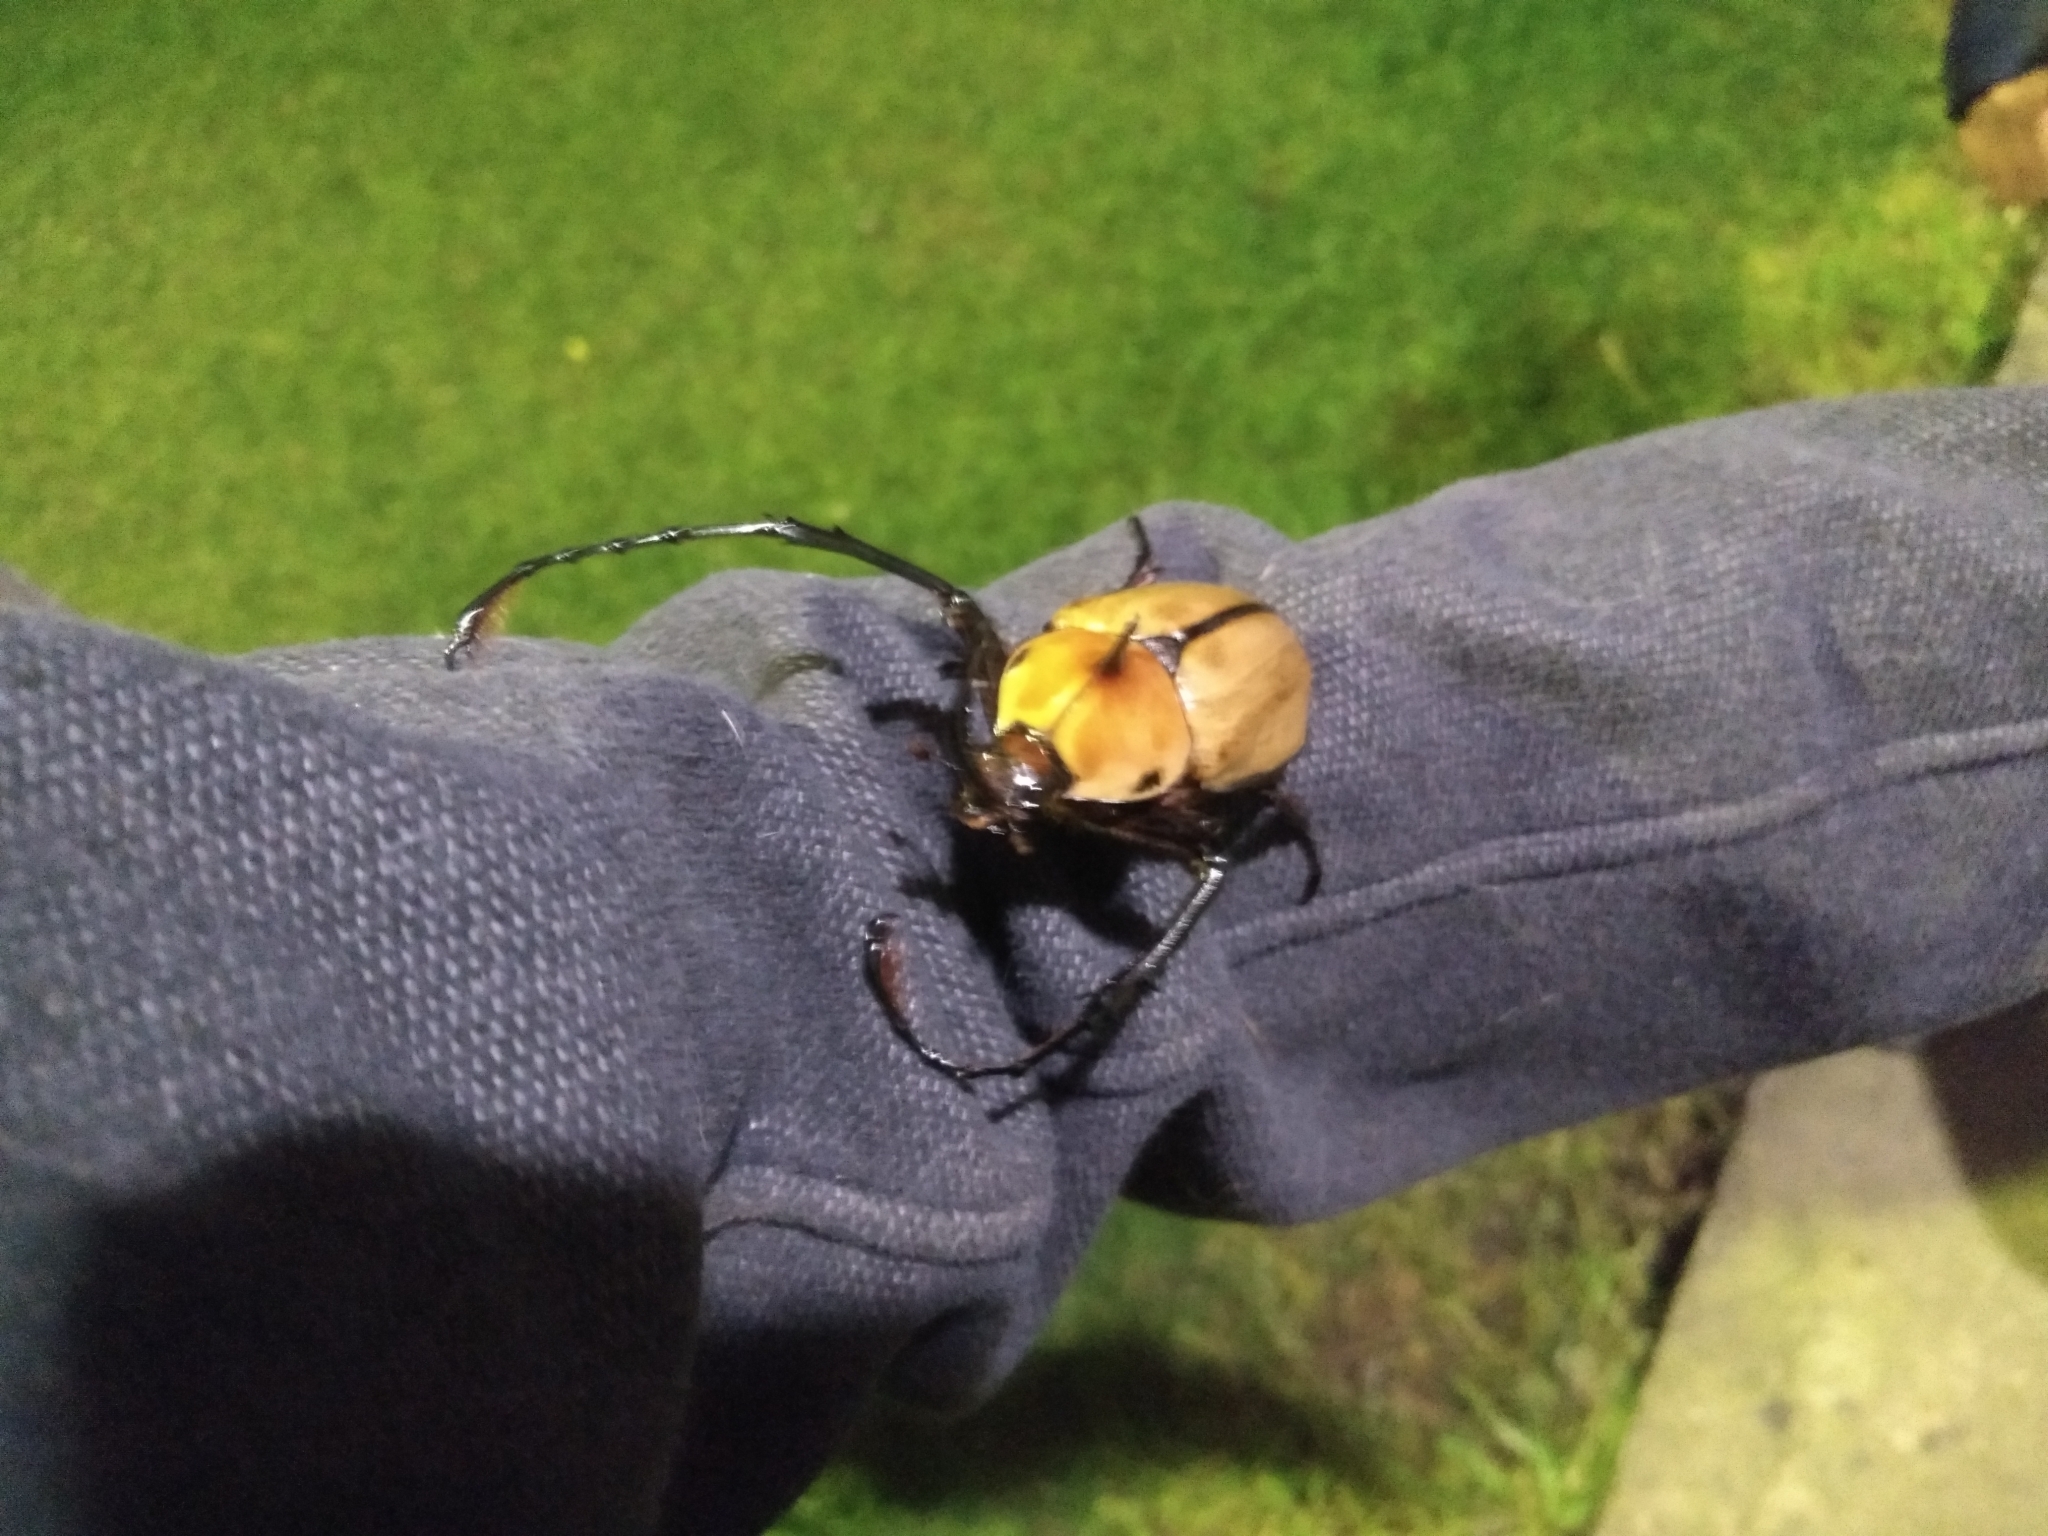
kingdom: Animalia
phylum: Arthropoda
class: Insecta
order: Coleoptera
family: Scarabaeidae
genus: Golofa
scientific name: Golofa porteri
